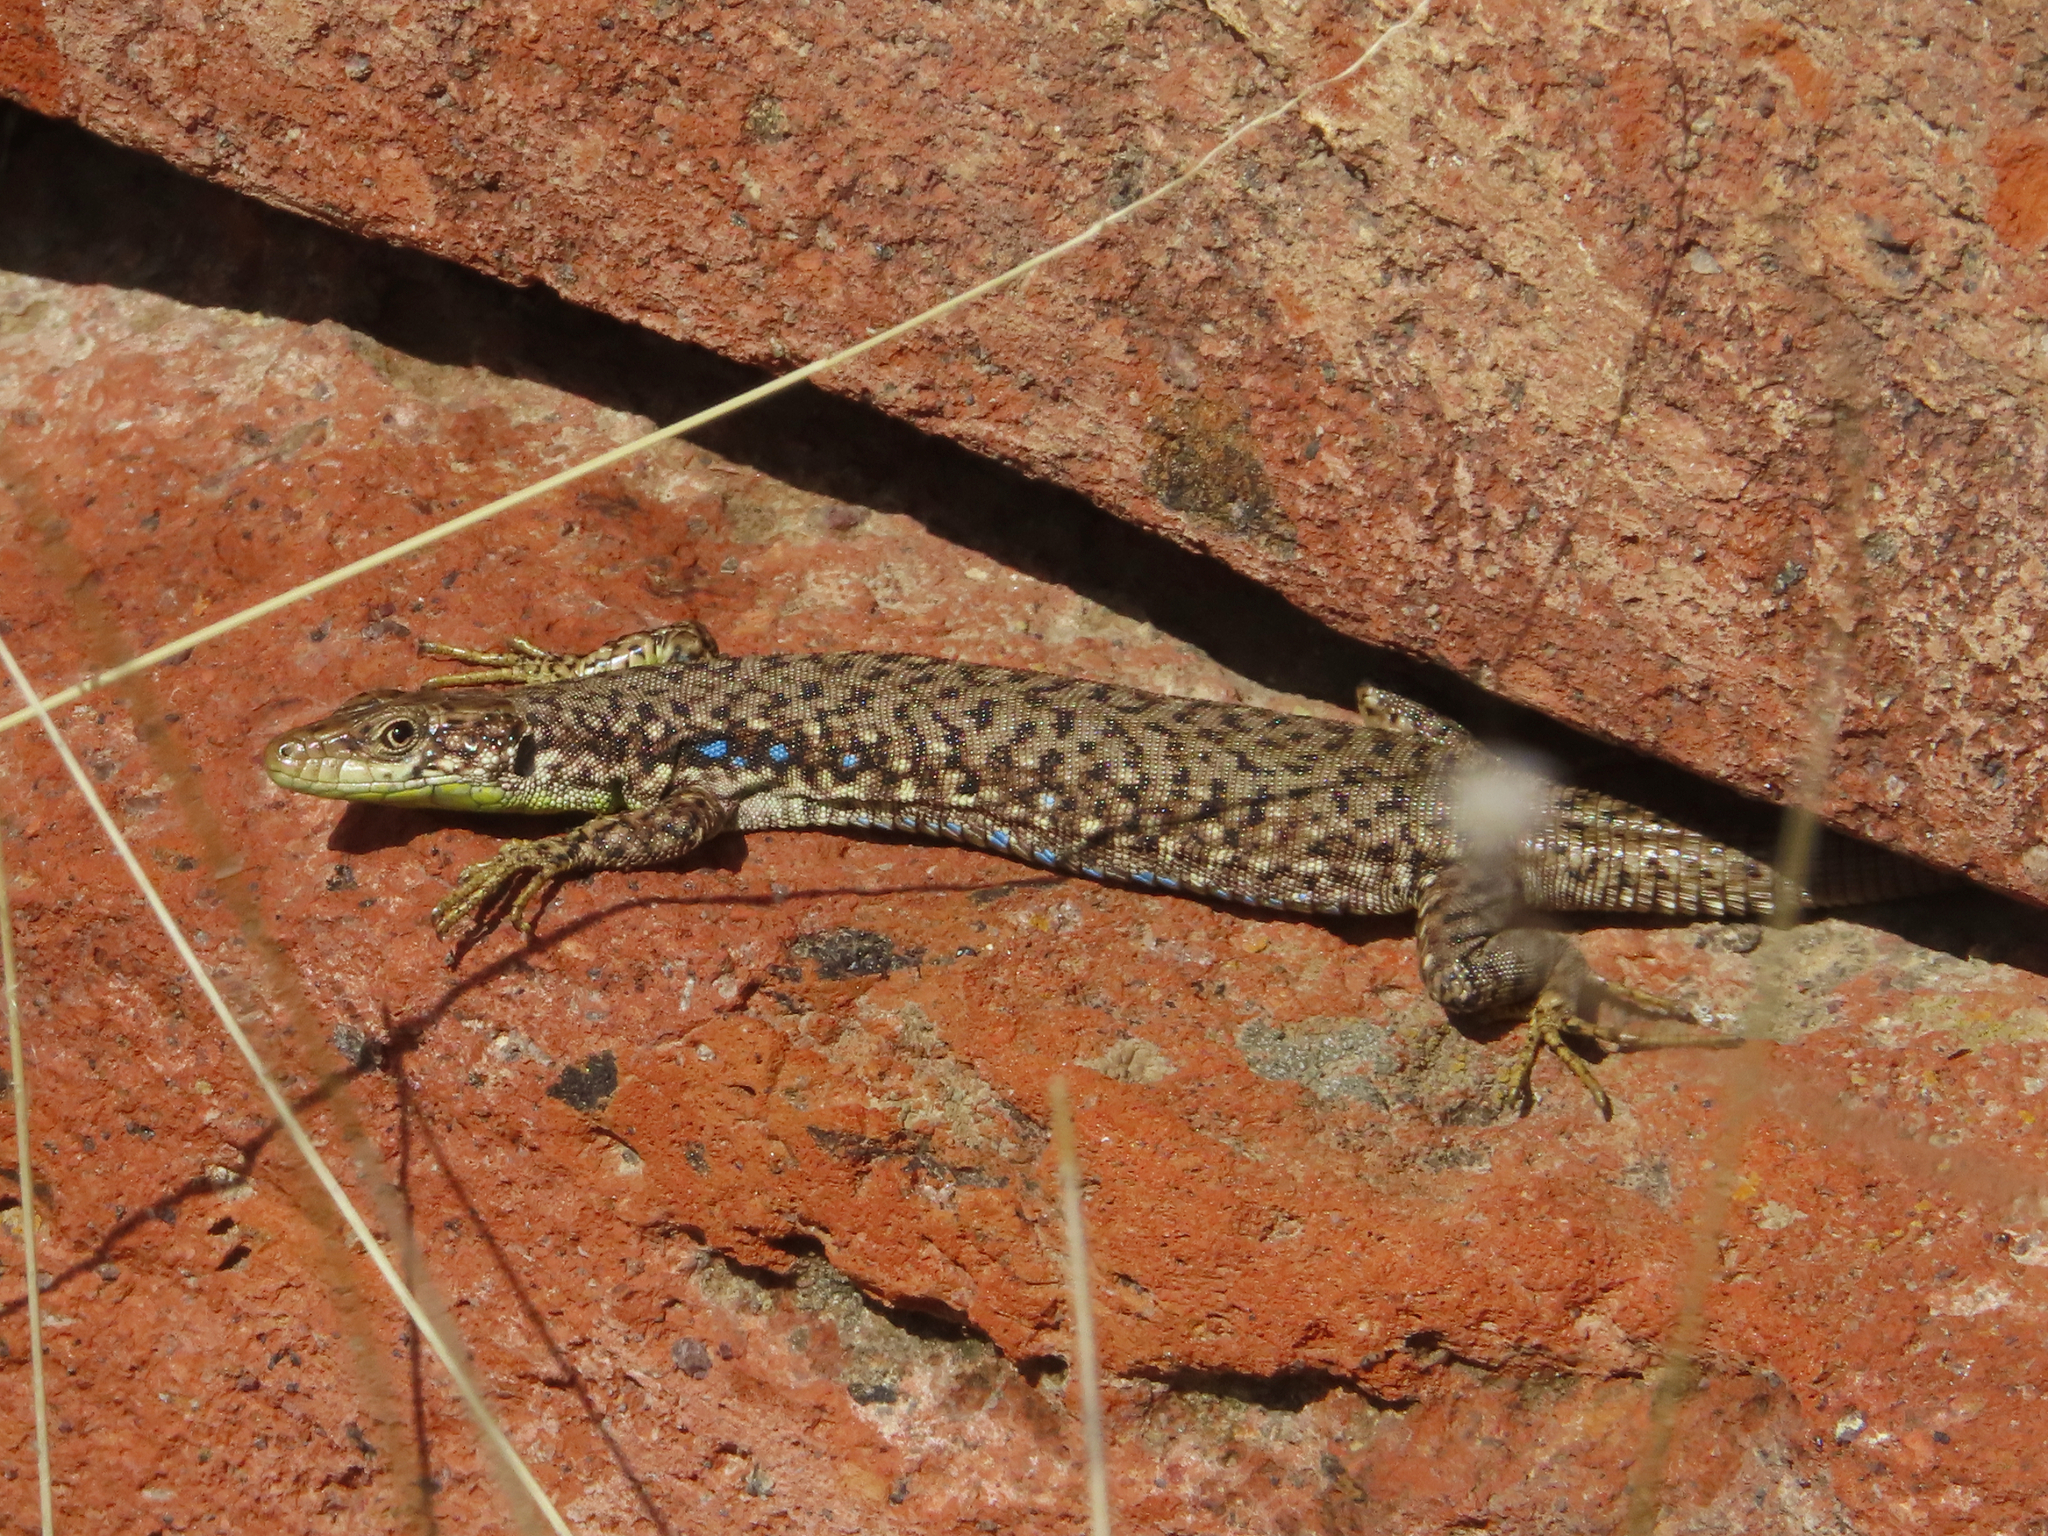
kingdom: Animalia
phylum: Chordata
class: Squamata
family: Lacertidae
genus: Darevskia
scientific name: Darevskia
